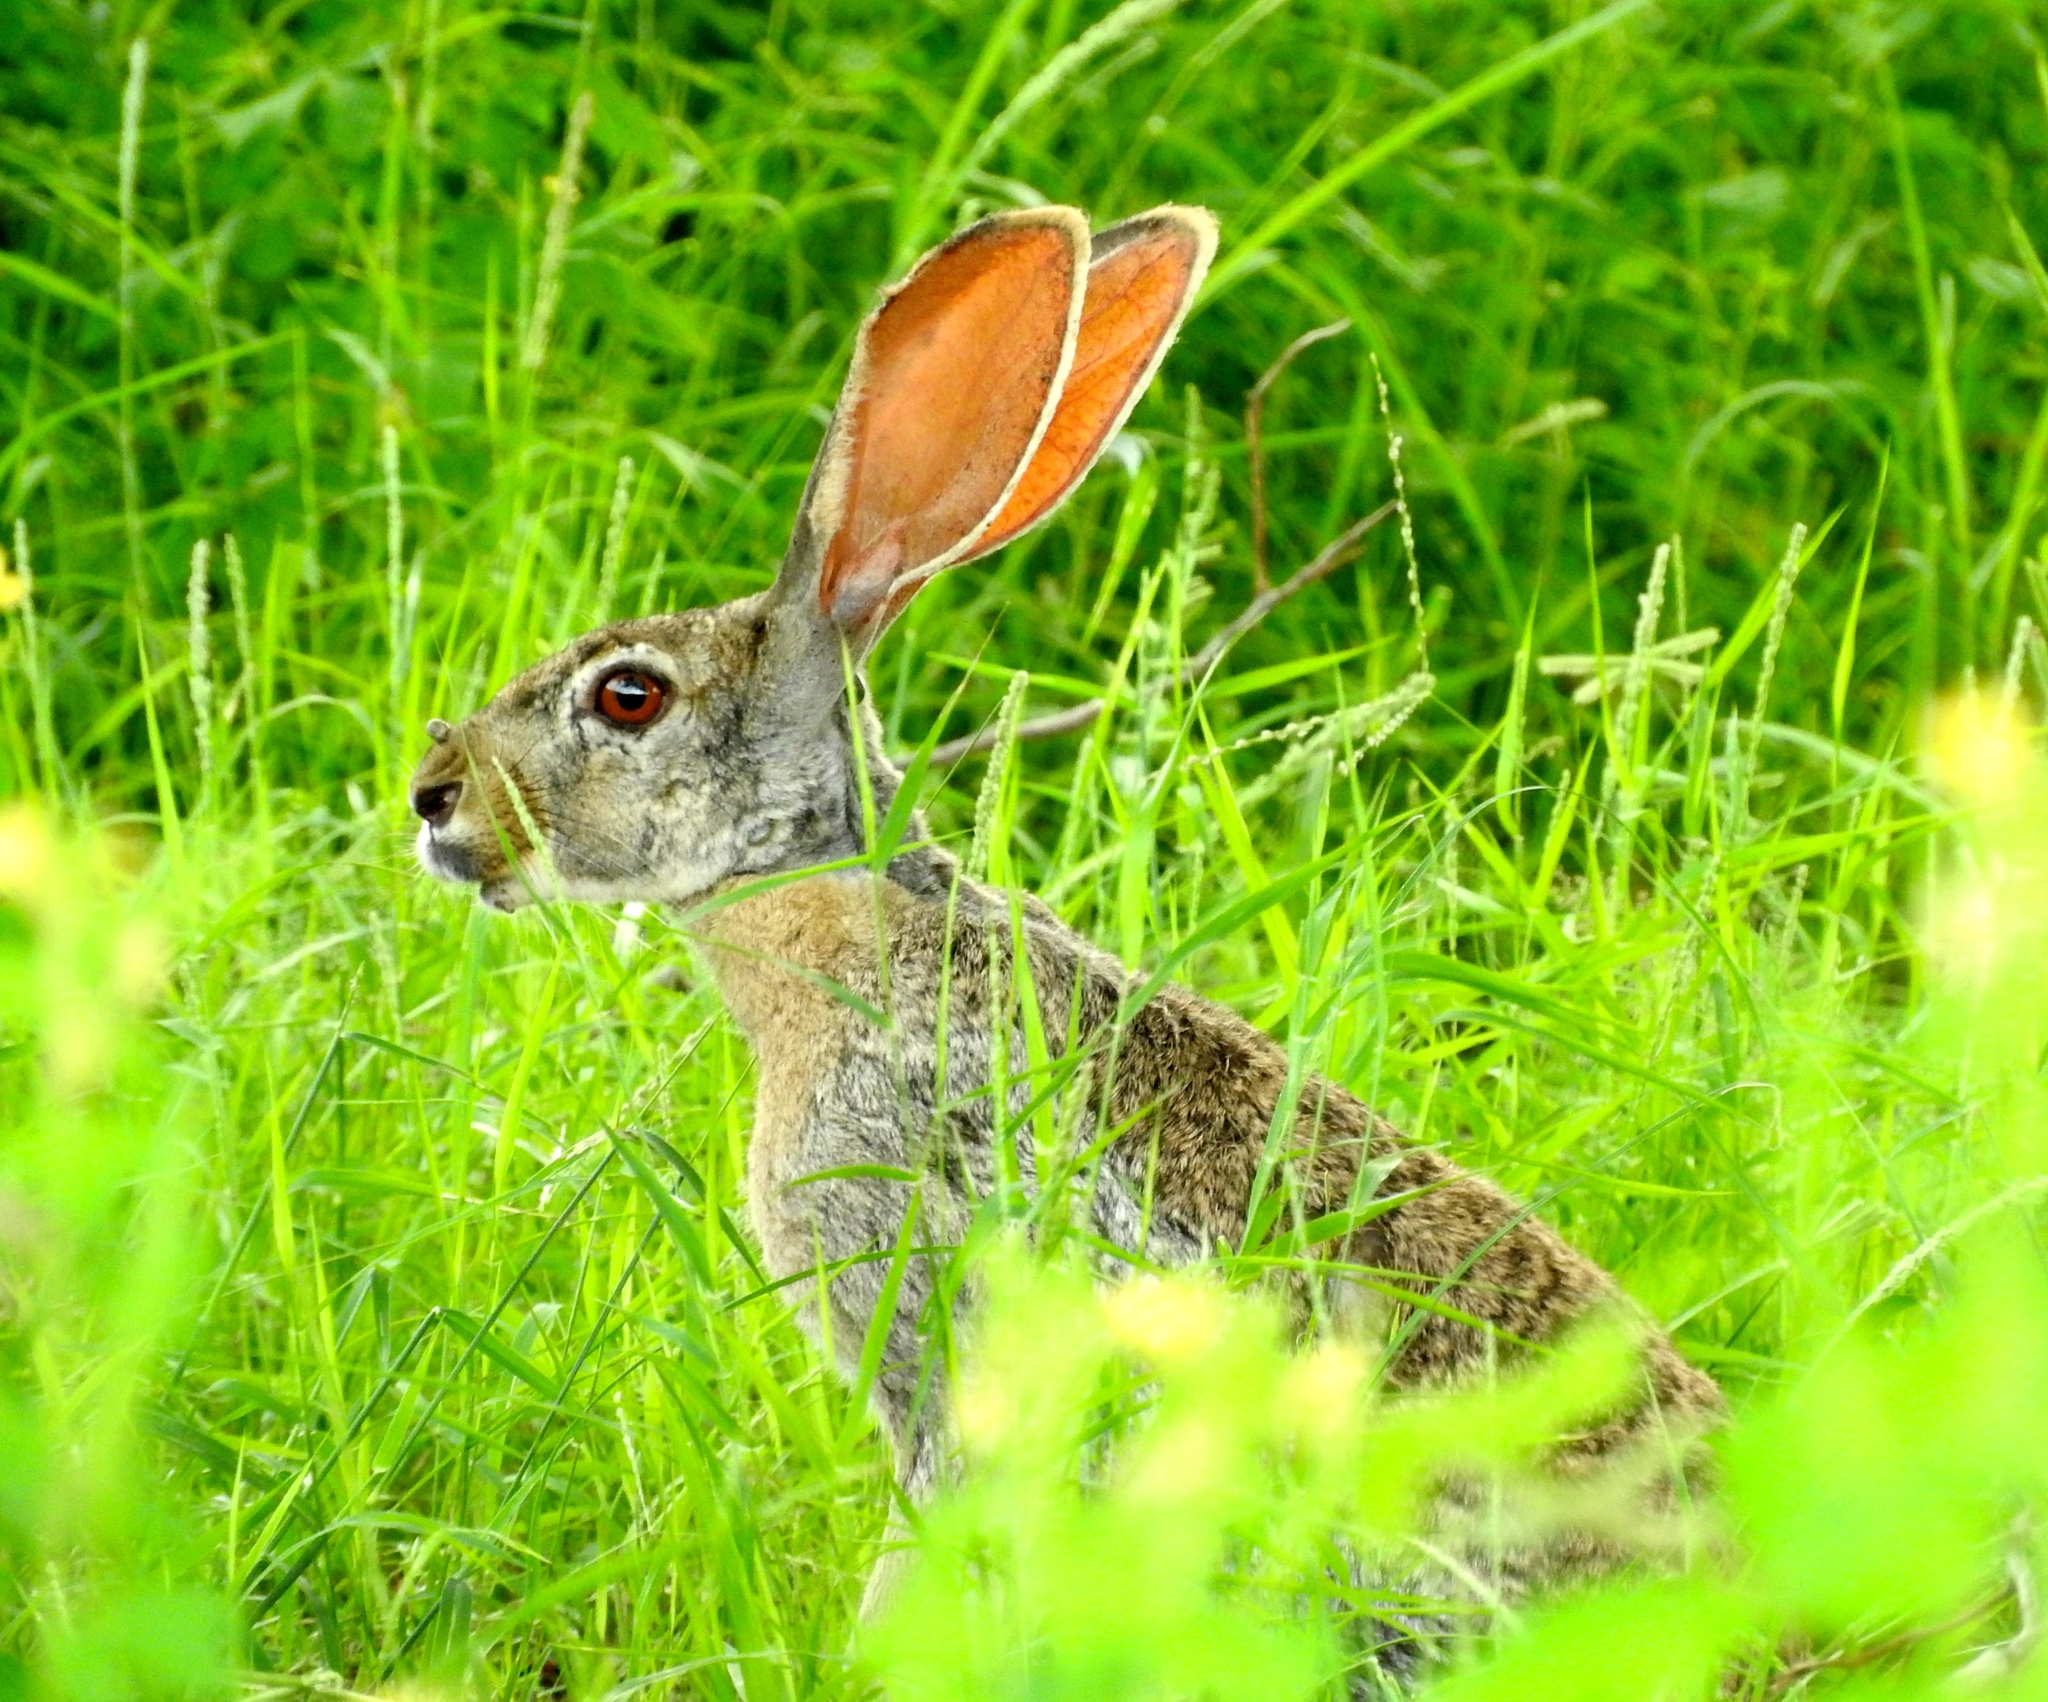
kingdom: Animalia
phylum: Chordata
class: Mammalia
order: Lagomorpha
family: Leporidae
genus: Lepus
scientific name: Lepus alleni
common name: Antelope jackrabbit
